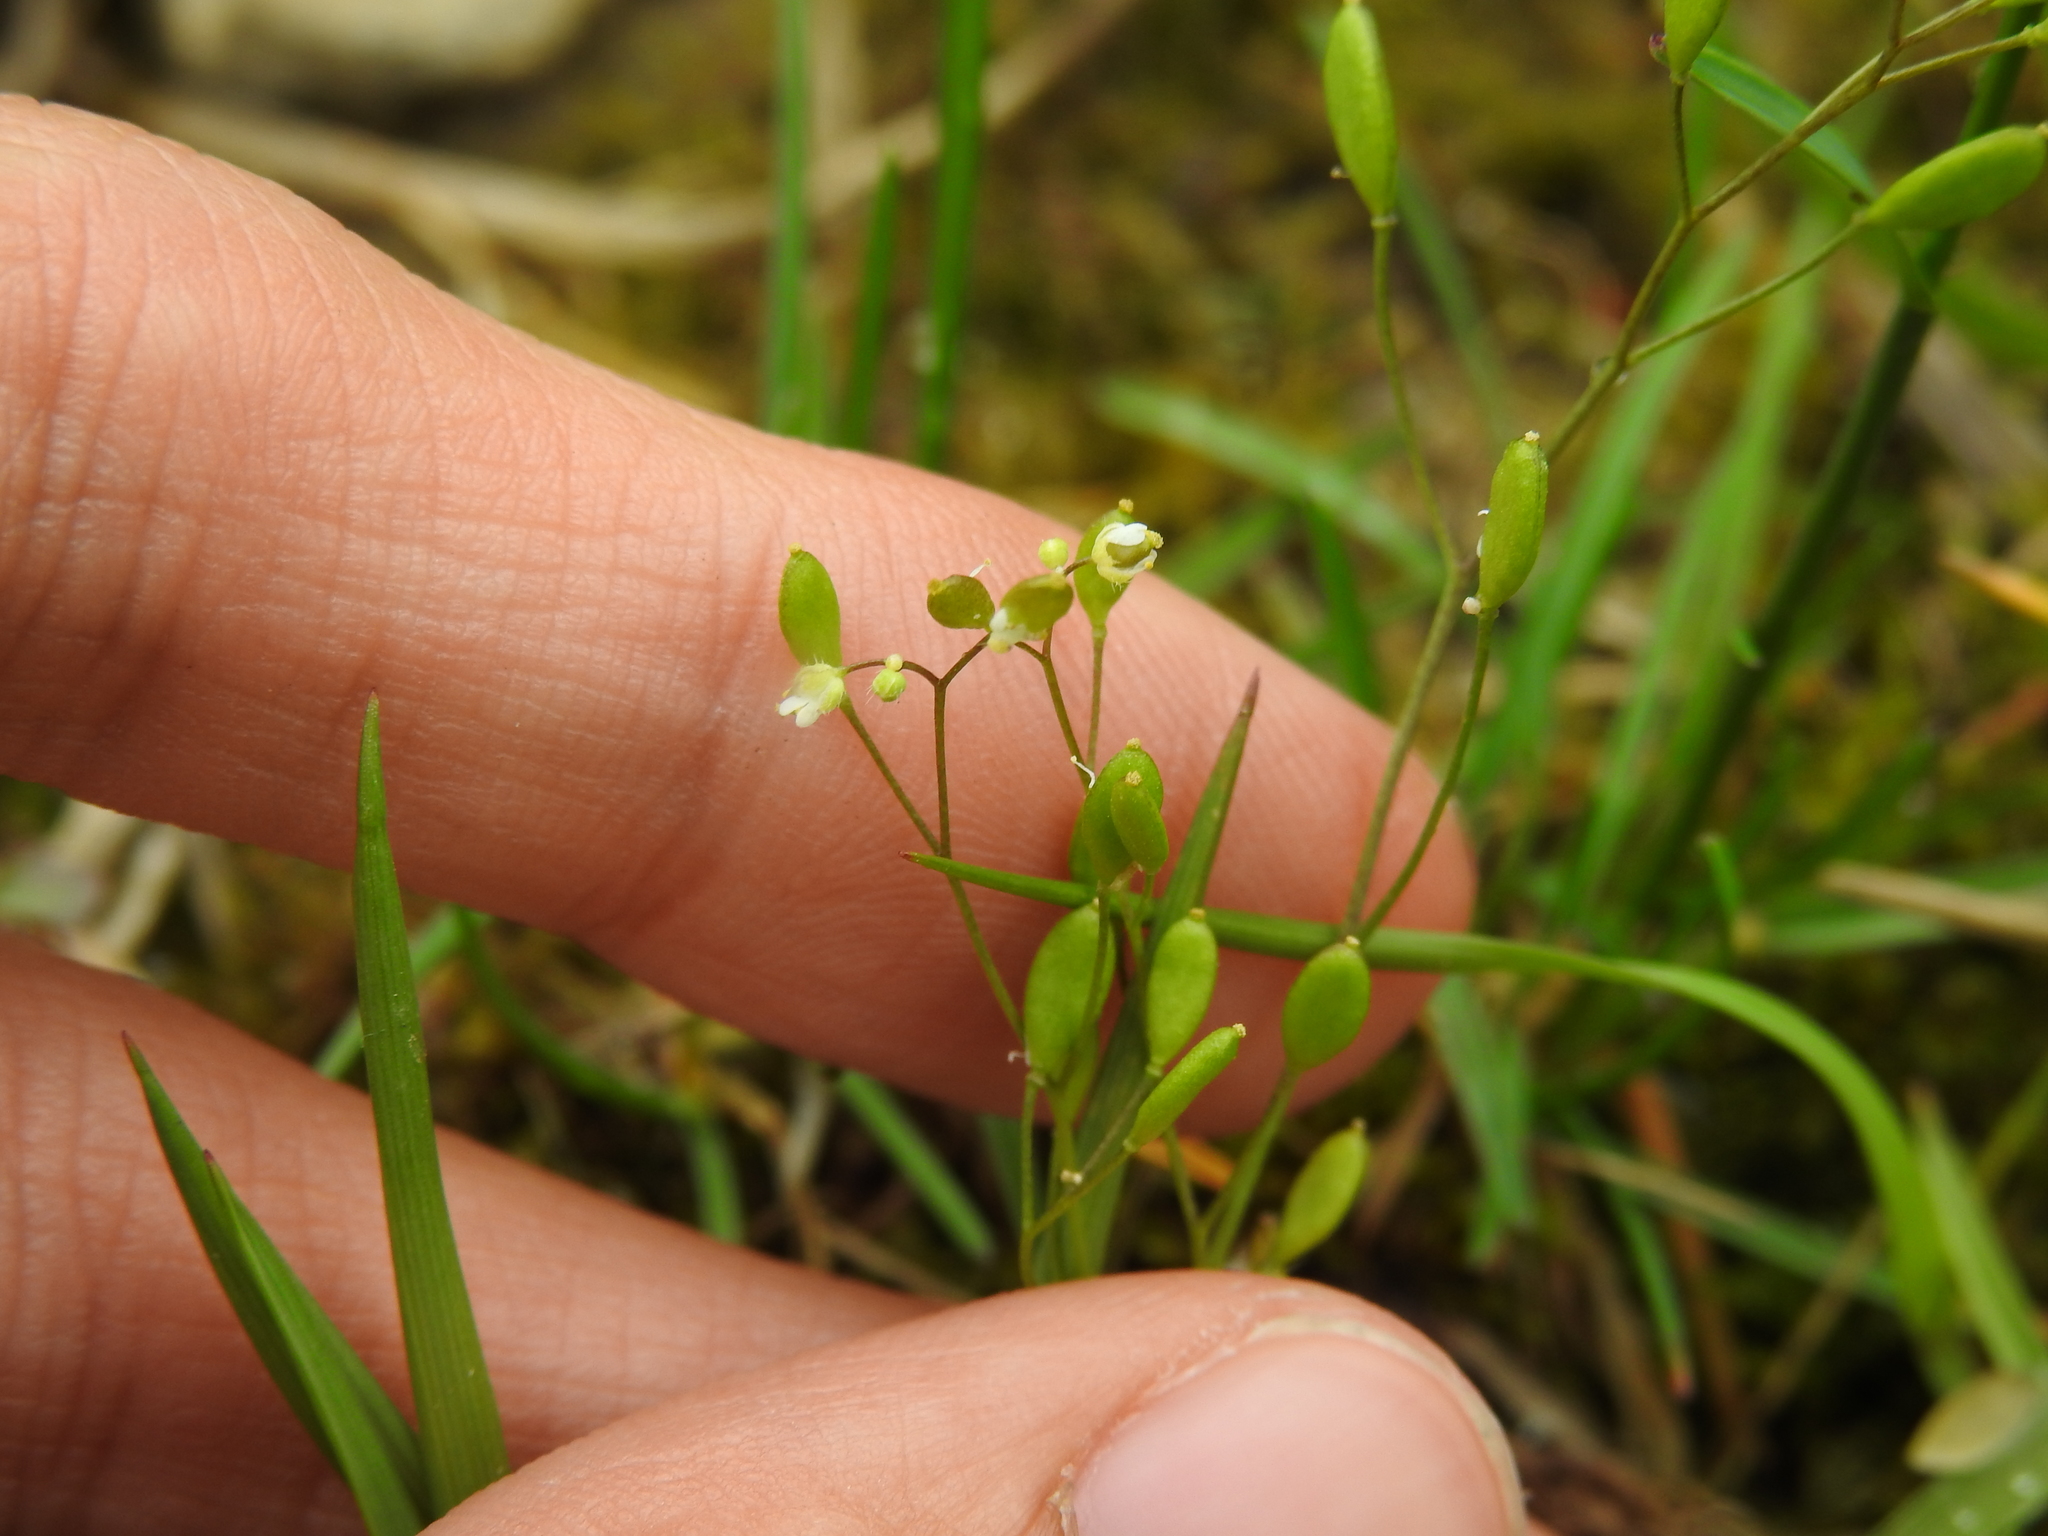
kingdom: Plantae
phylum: Tracheophyta
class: Magnoliopsida
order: Brassicales
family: Brassicaceae
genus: Draba
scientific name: Draba verna
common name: Spring draba
